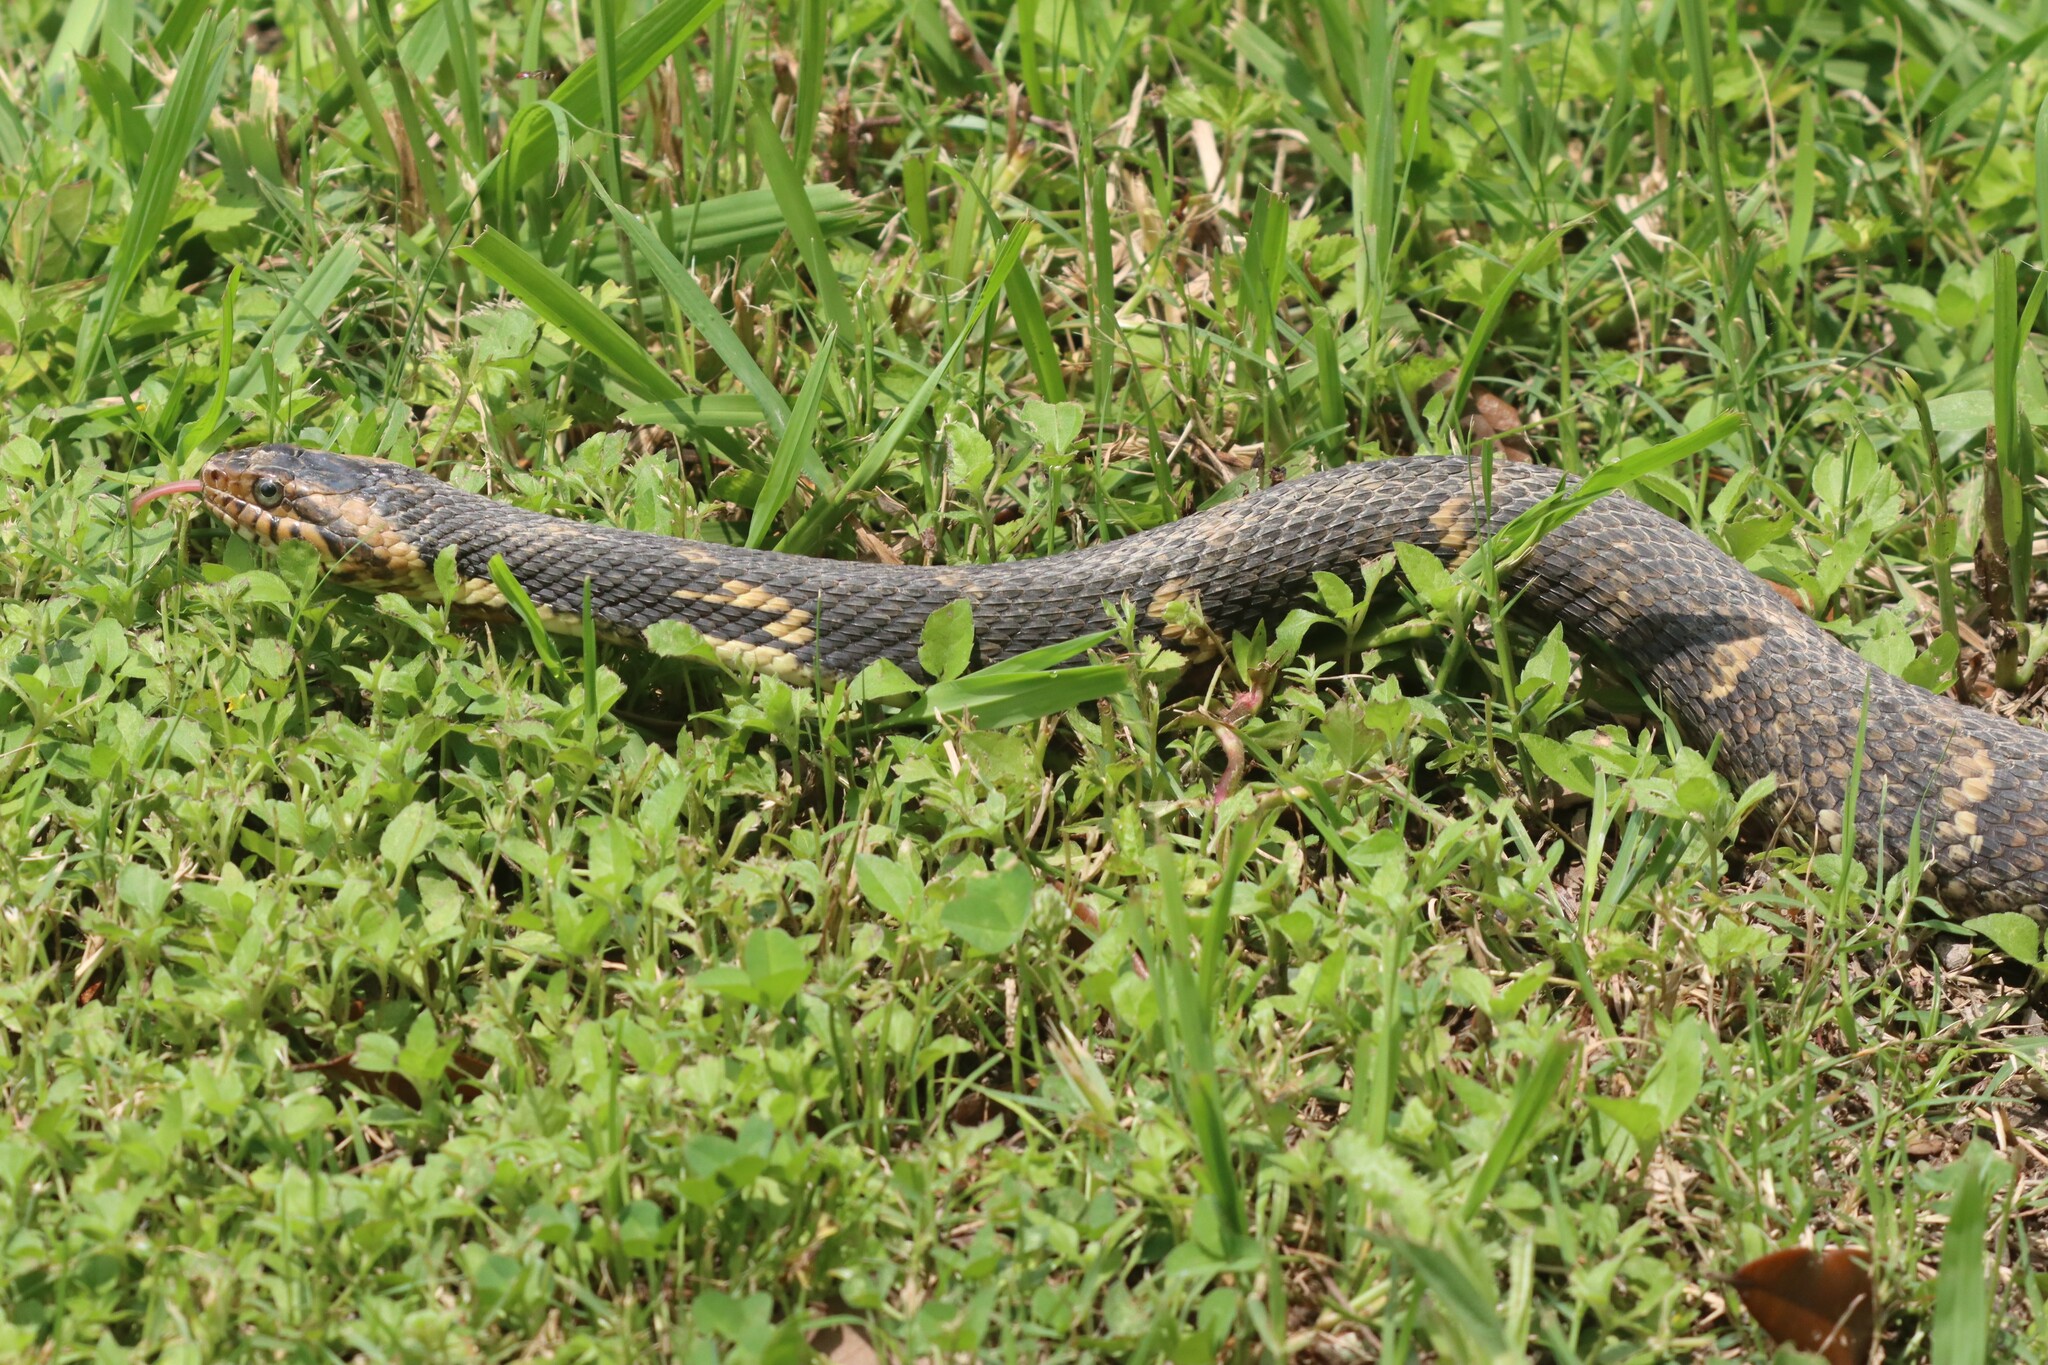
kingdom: Animalia
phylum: Chordata
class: Squamata
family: Colubridae
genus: Nerodia
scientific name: Nerodia fasciata
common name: Southern water snake
